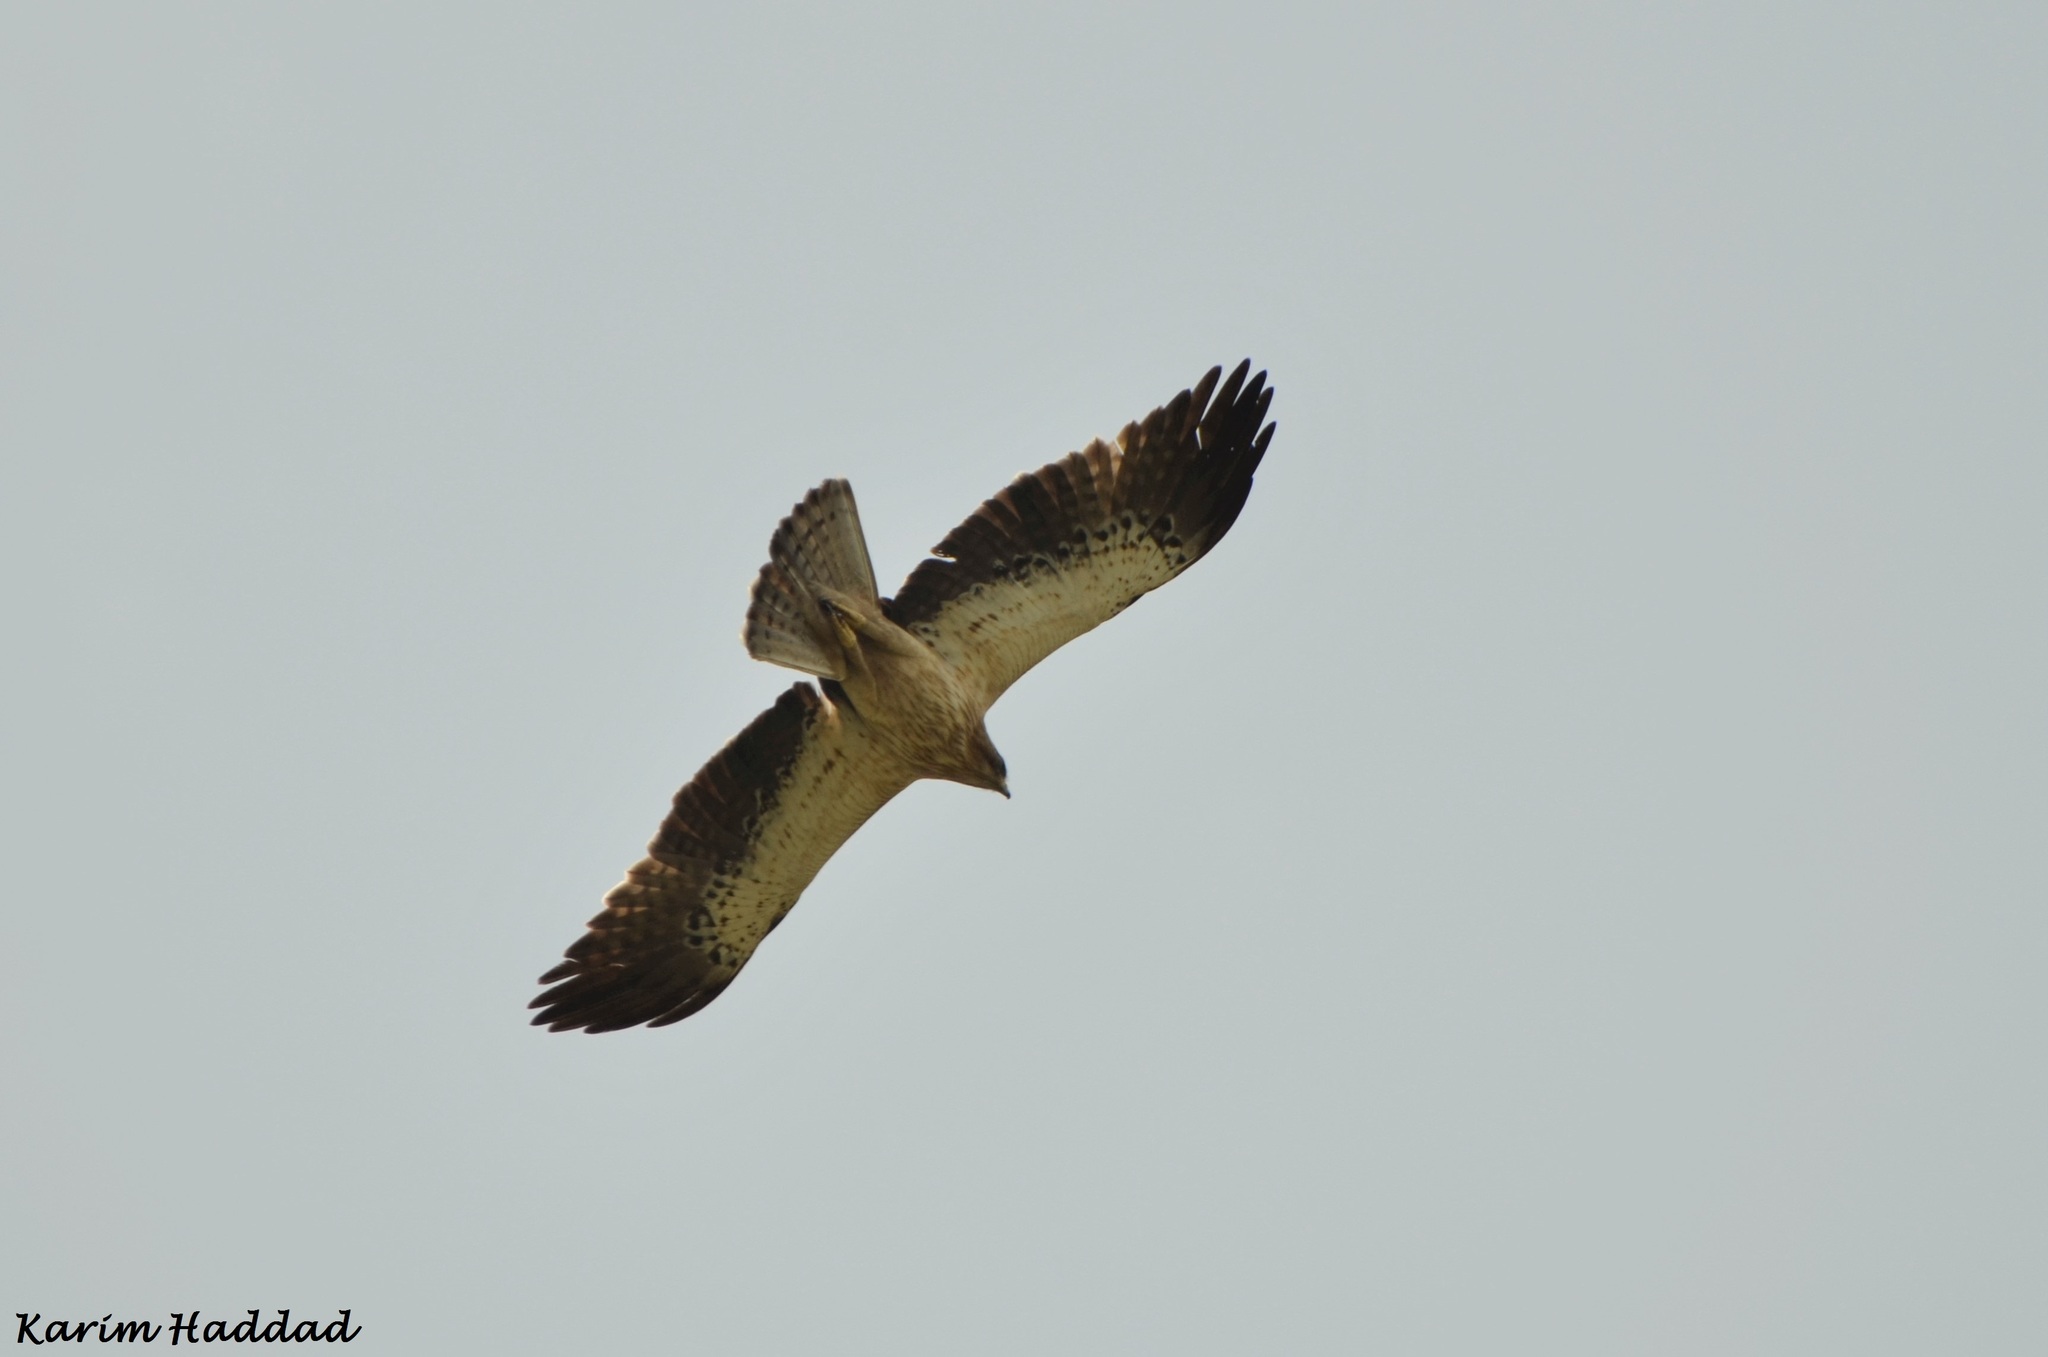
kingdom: Animalia
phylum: Chordata
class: Aves
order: Accipitriformes
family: Accipitridae
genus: Hieraaetus
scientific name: Hieraaetus pennatus
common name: Booted eagle
